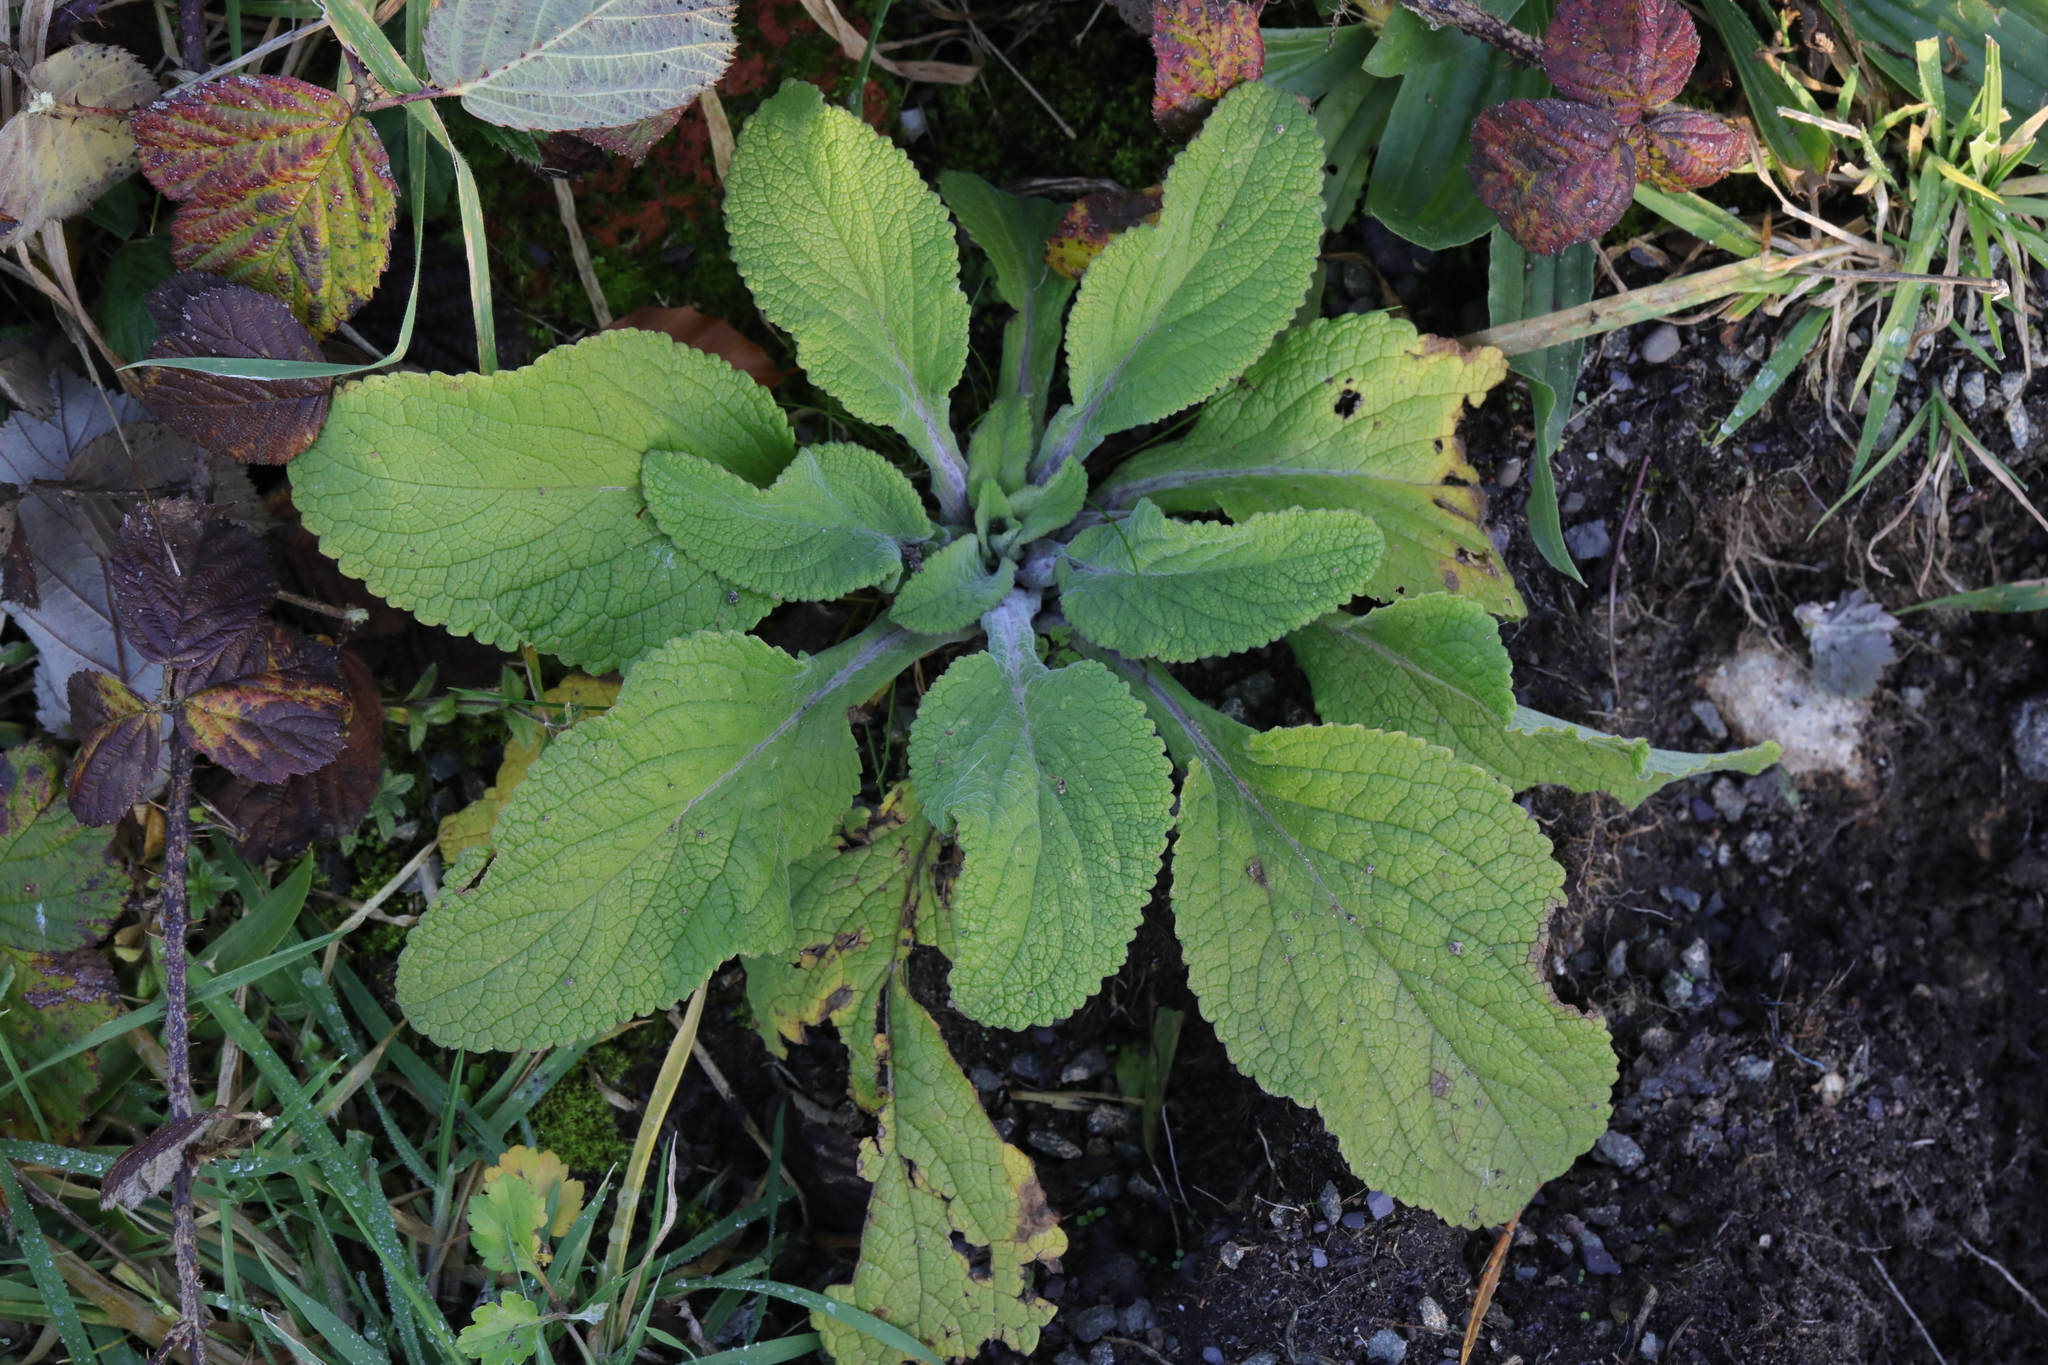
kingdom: Plantae
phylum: Tracheophyta
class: Magnoliopsida
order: Lamiales
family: Plantaginaceae
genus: Digitalis
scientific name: Digitalis purpurea
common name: Foxglove
